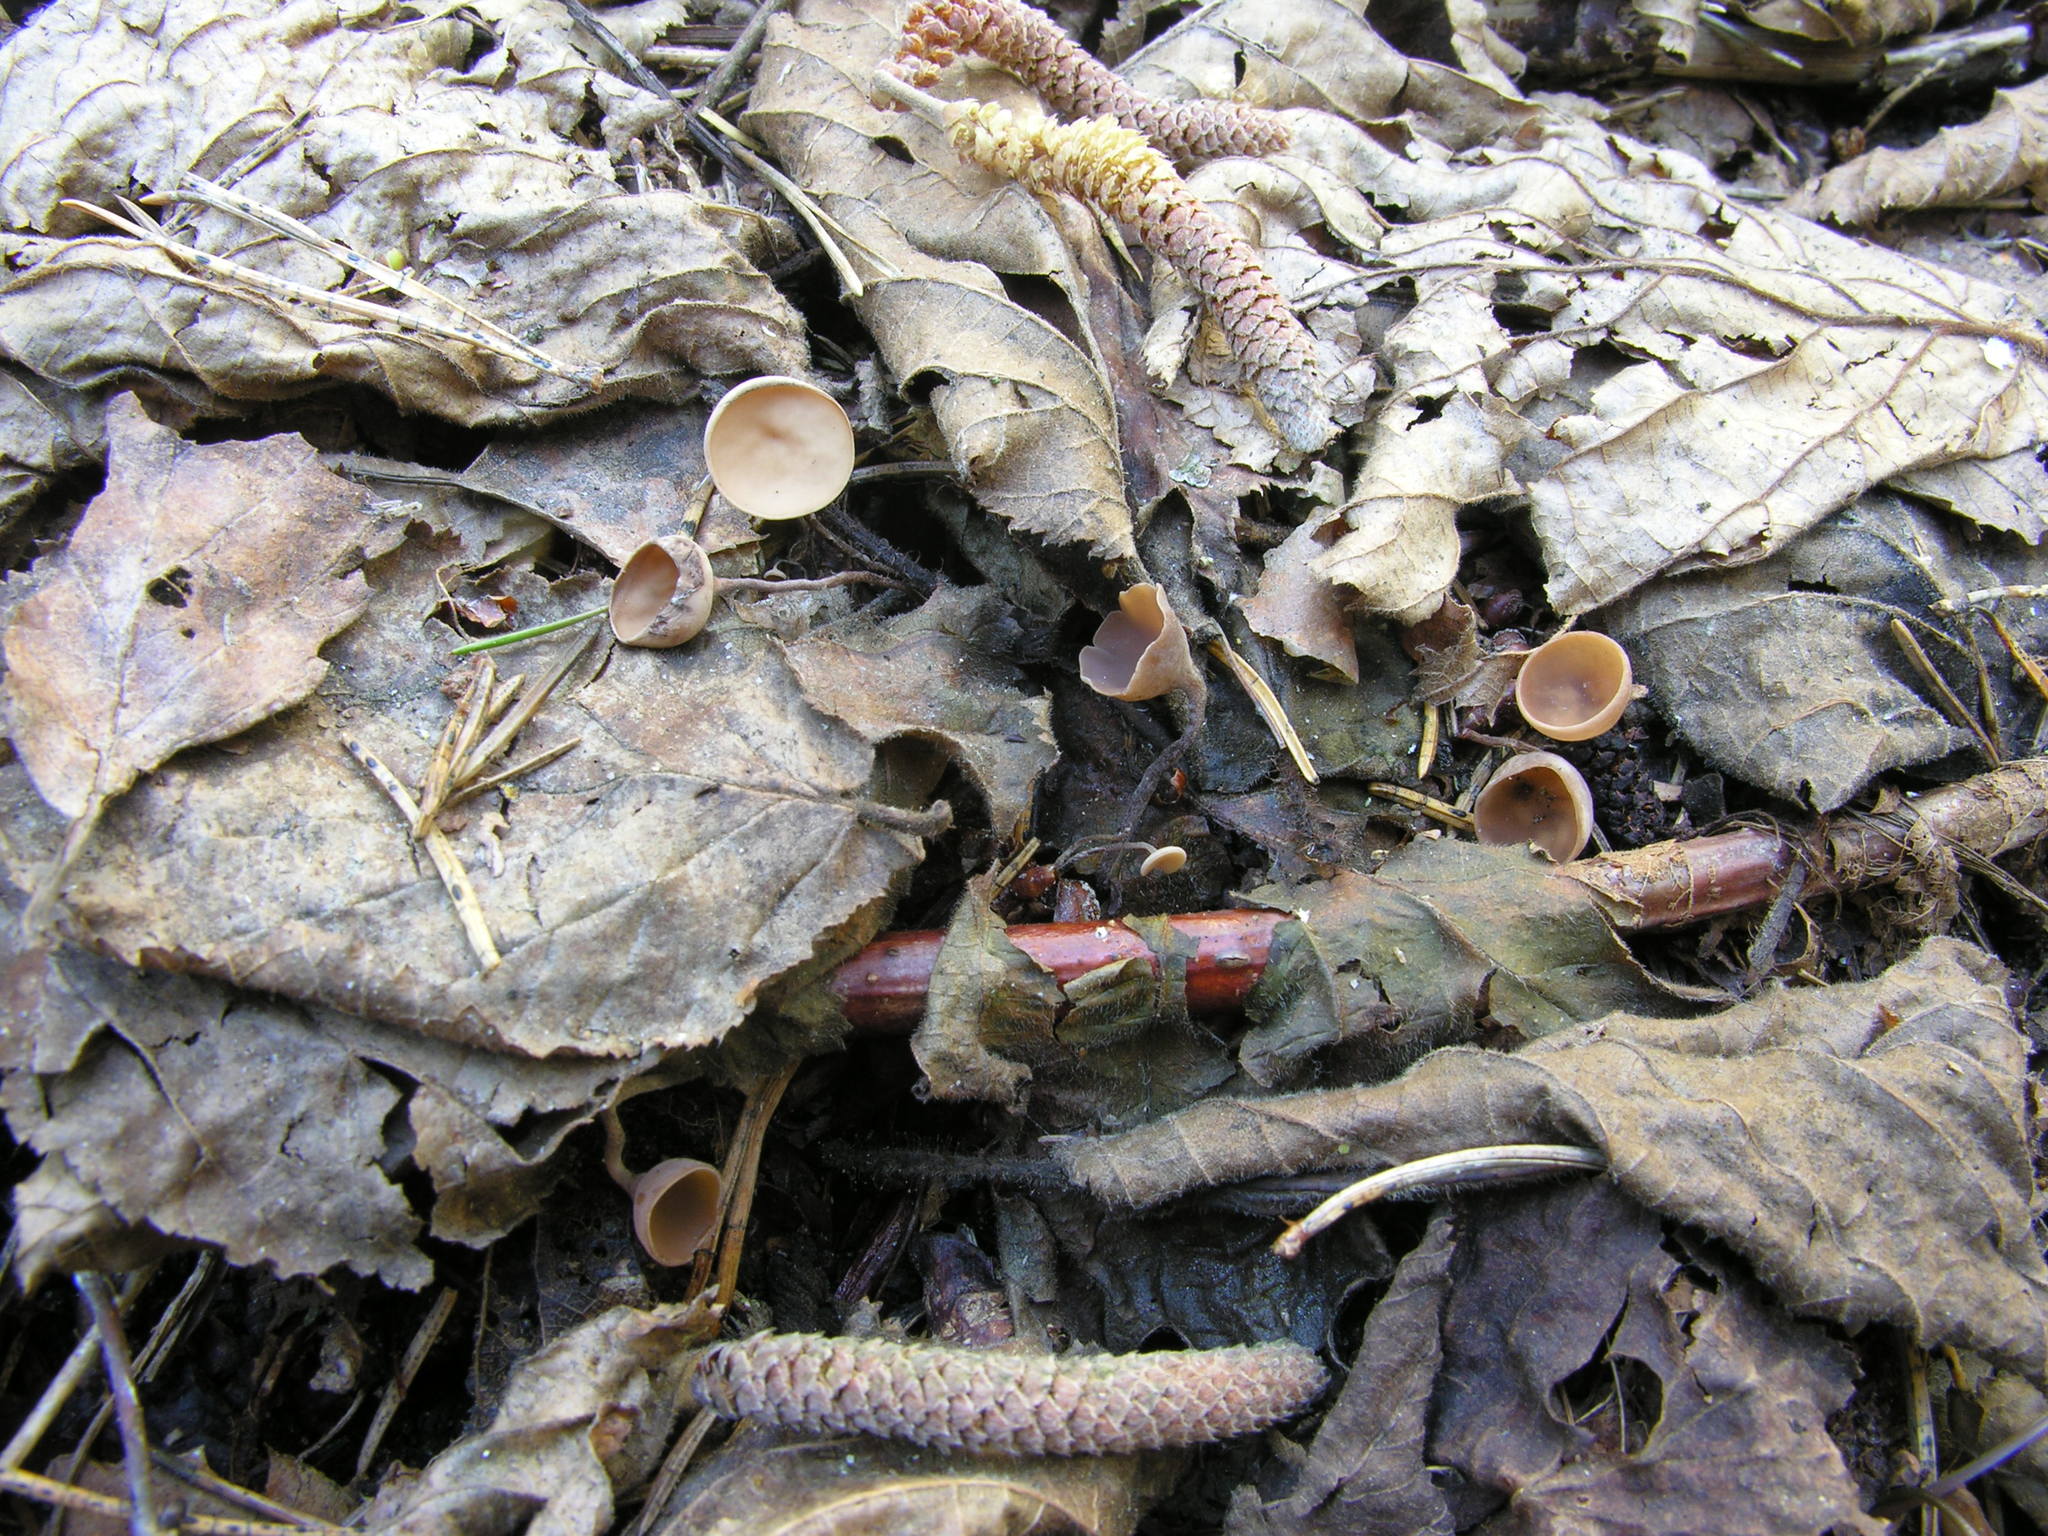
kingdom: Fungi
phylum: Ascomycota
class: Leotiomycetes
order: Helotiales
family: Sclerotiniaceae
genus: Ciboria
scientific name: Ciboria coryli
